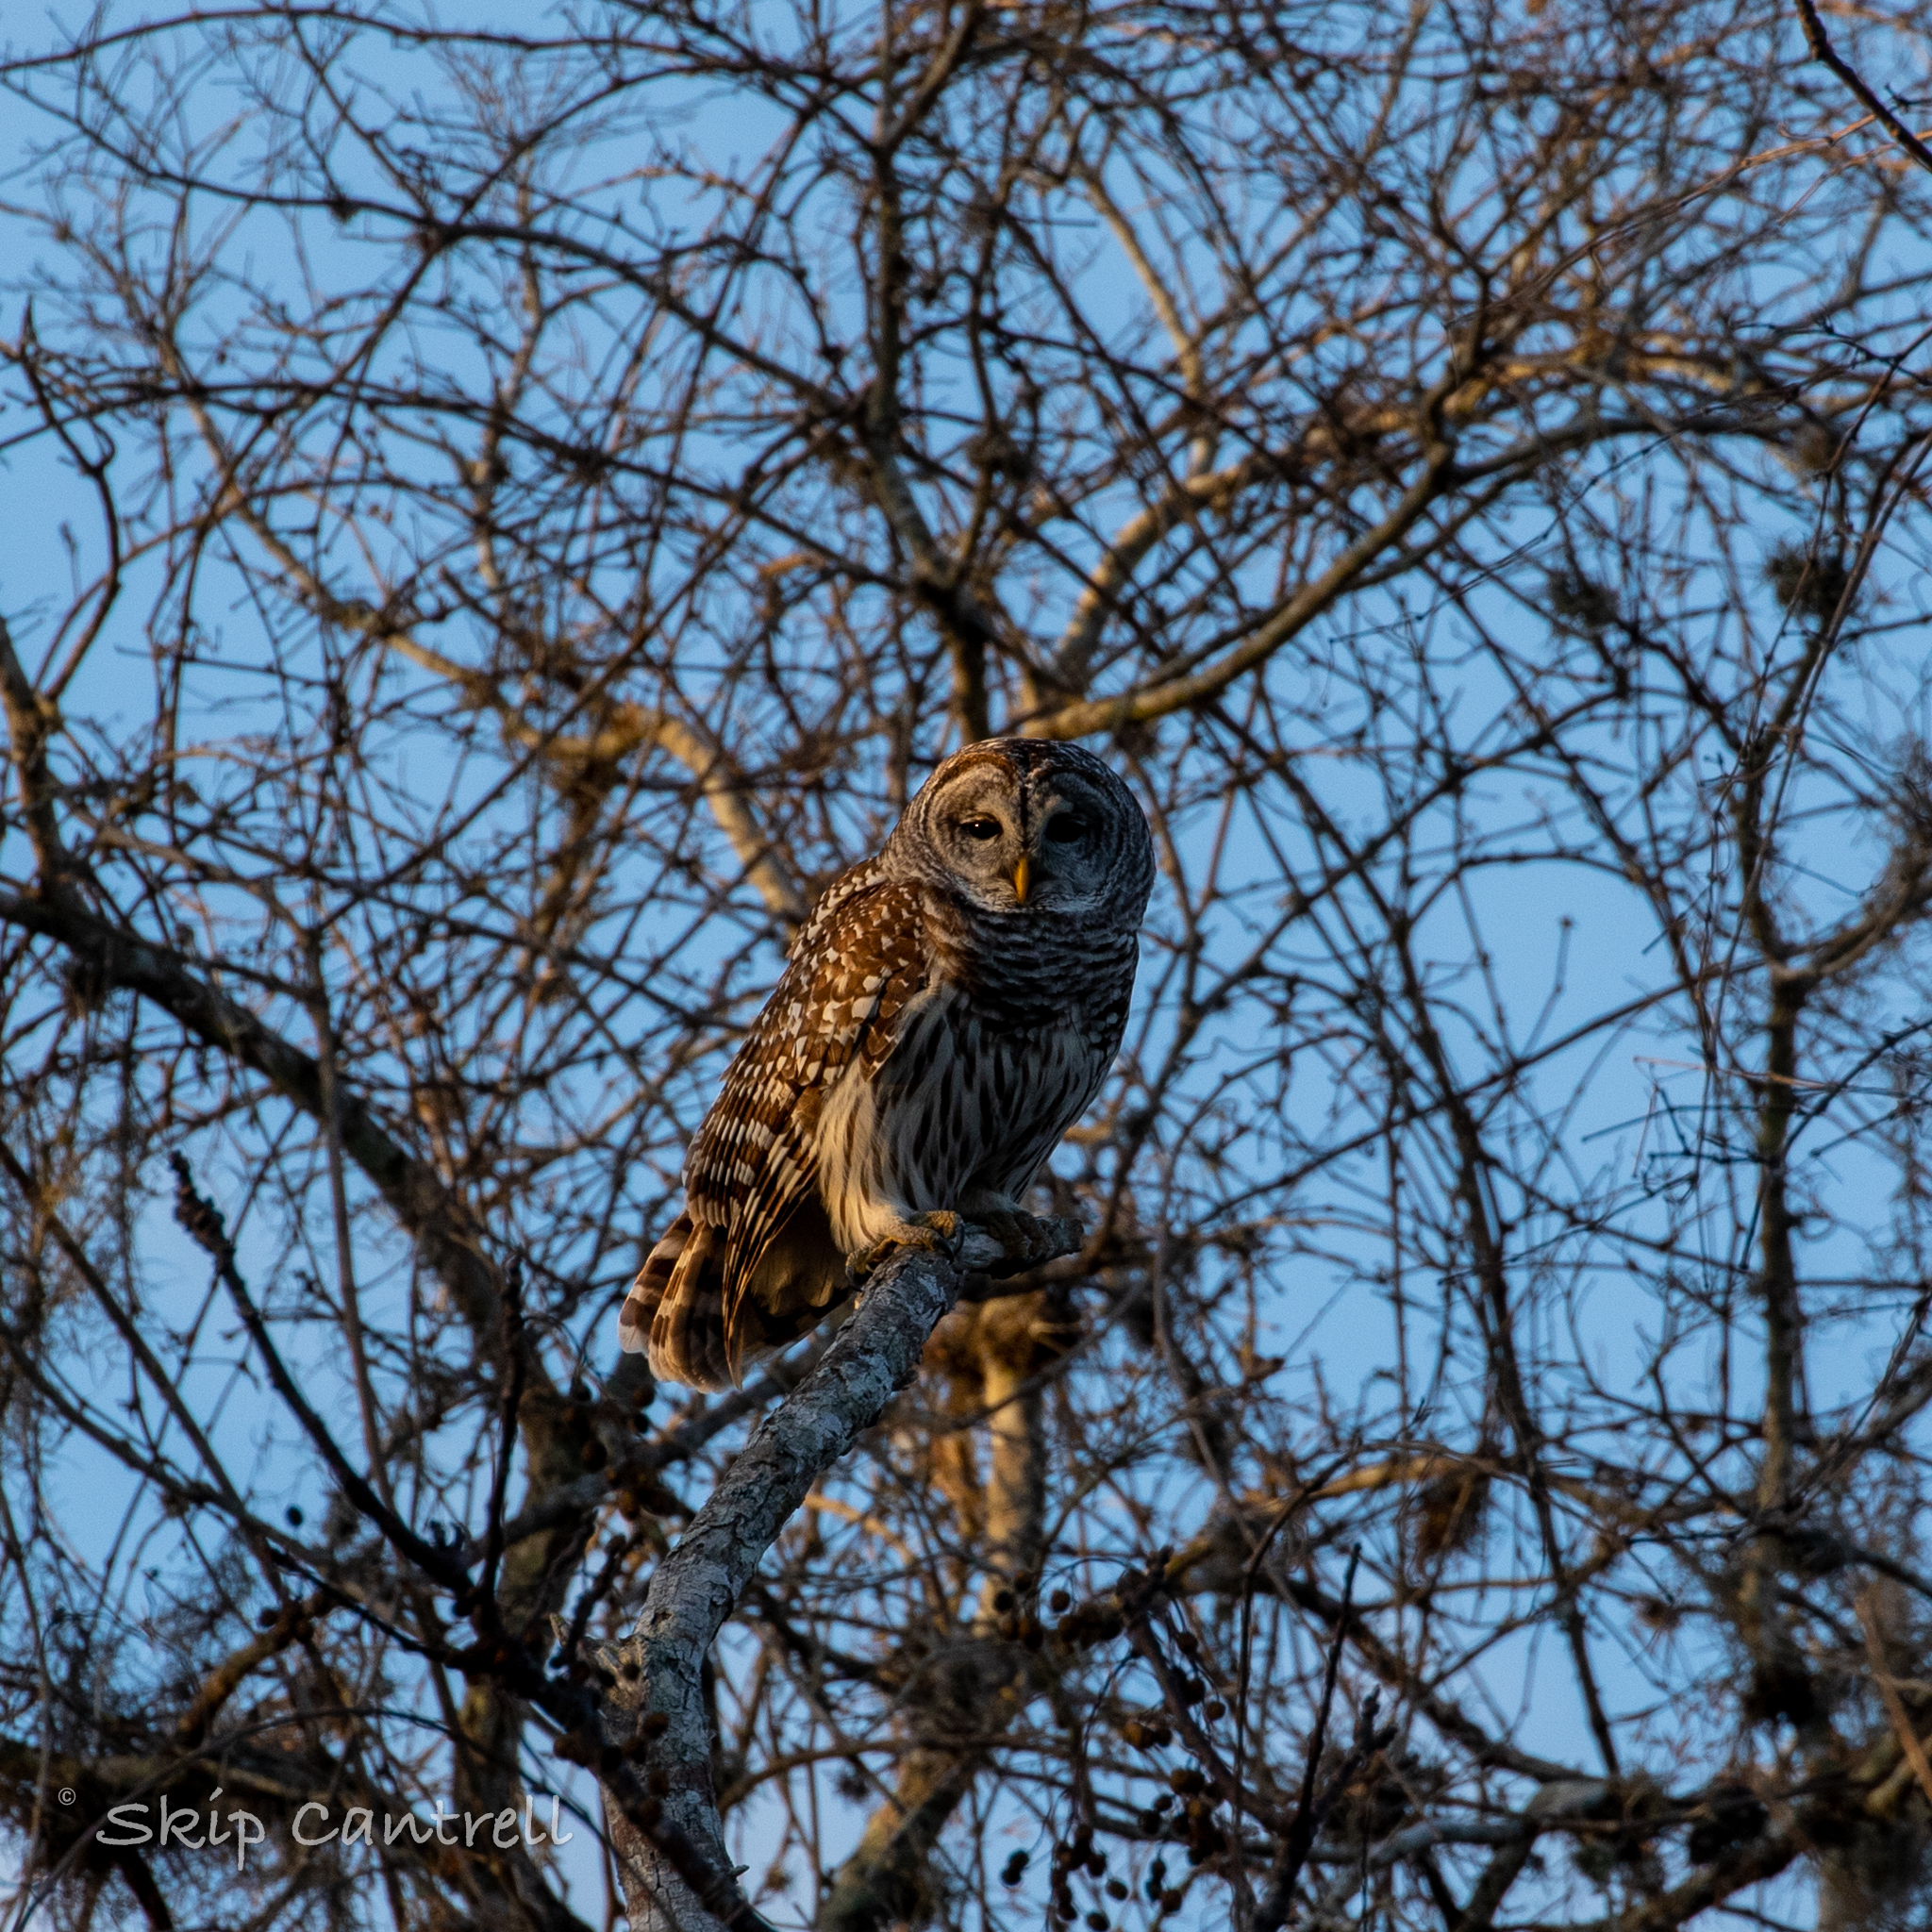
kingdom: Animalia
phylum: Chordata
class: Aves
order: Strigiformes
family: Strigidae
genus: Strix
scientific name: Strix varia
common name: Barred owl
